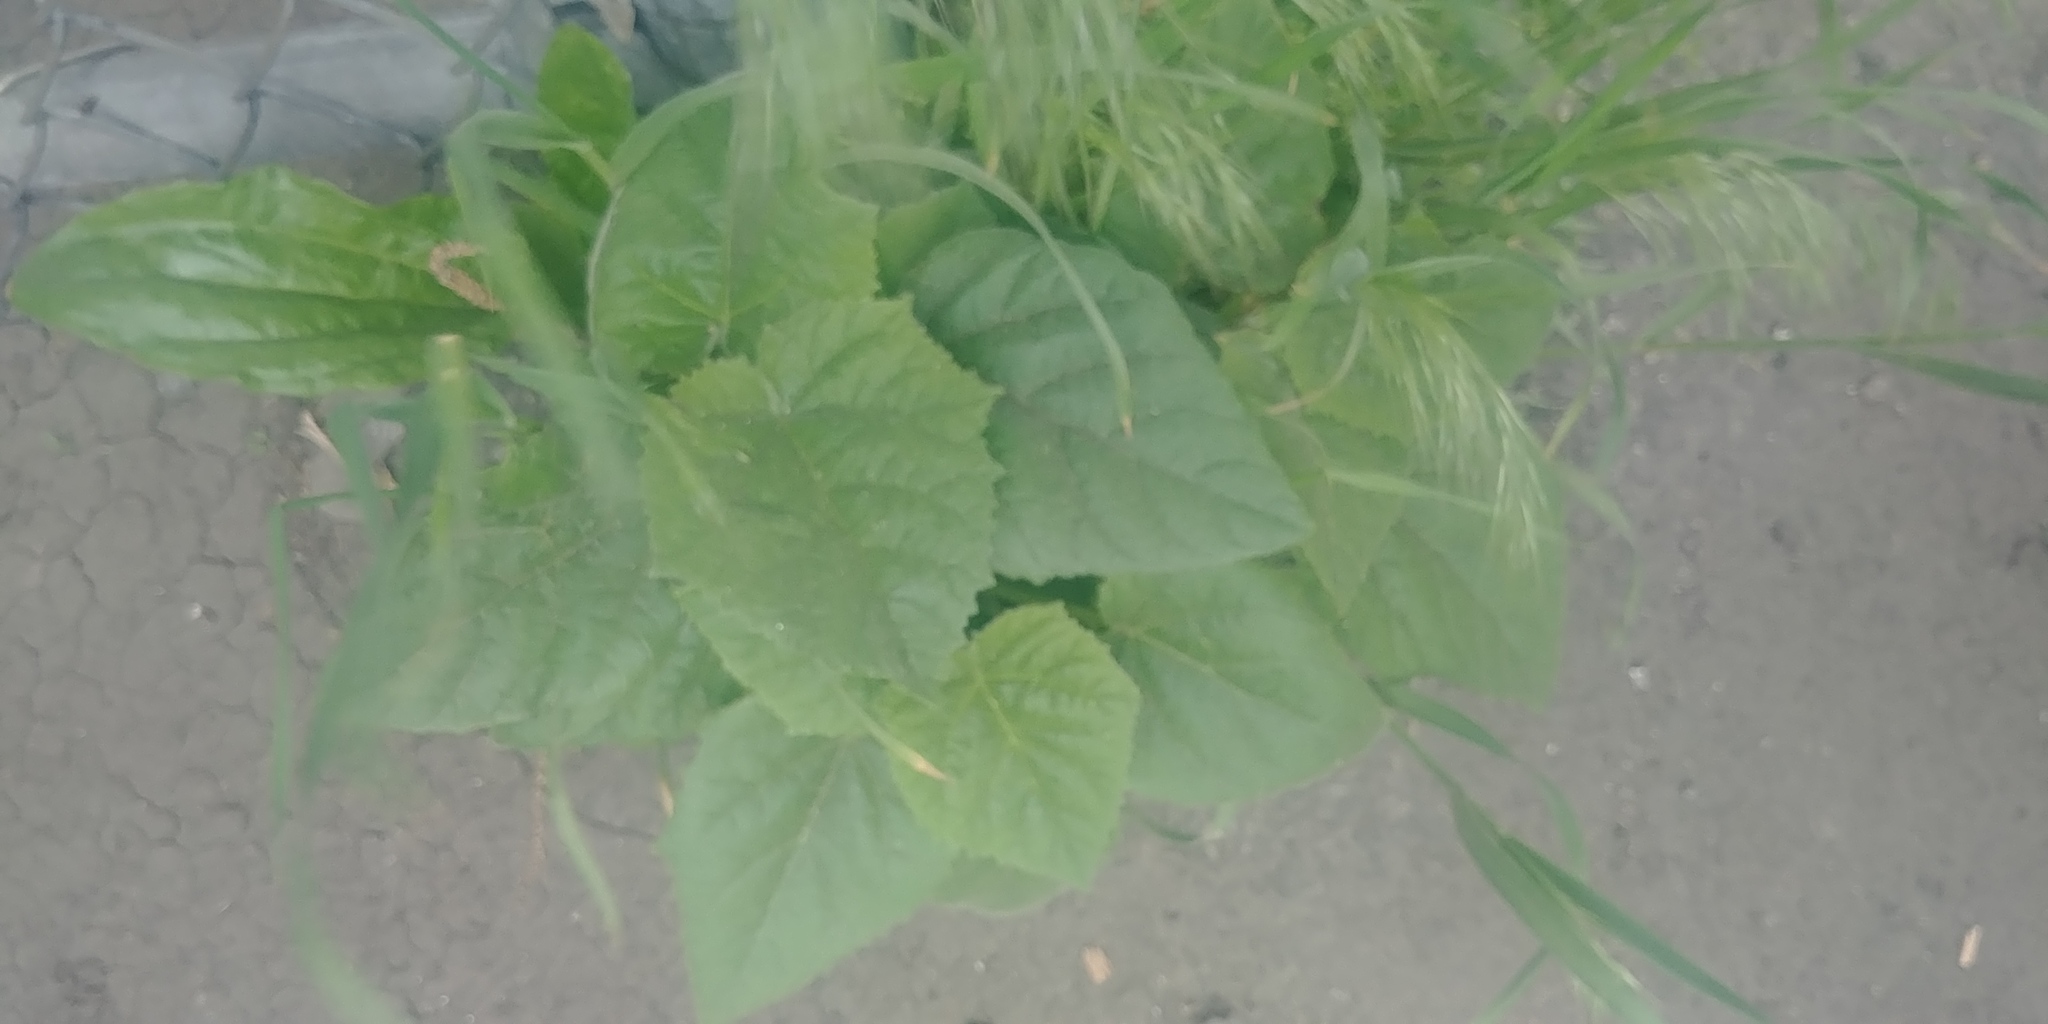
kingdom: Plantae
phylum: Tracheophyta
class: Magnoliopsida
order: Lamiales
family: Paulowniaceae
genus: Paulownia
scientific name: Paulownia tomentosa
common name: Foxglove-tree
